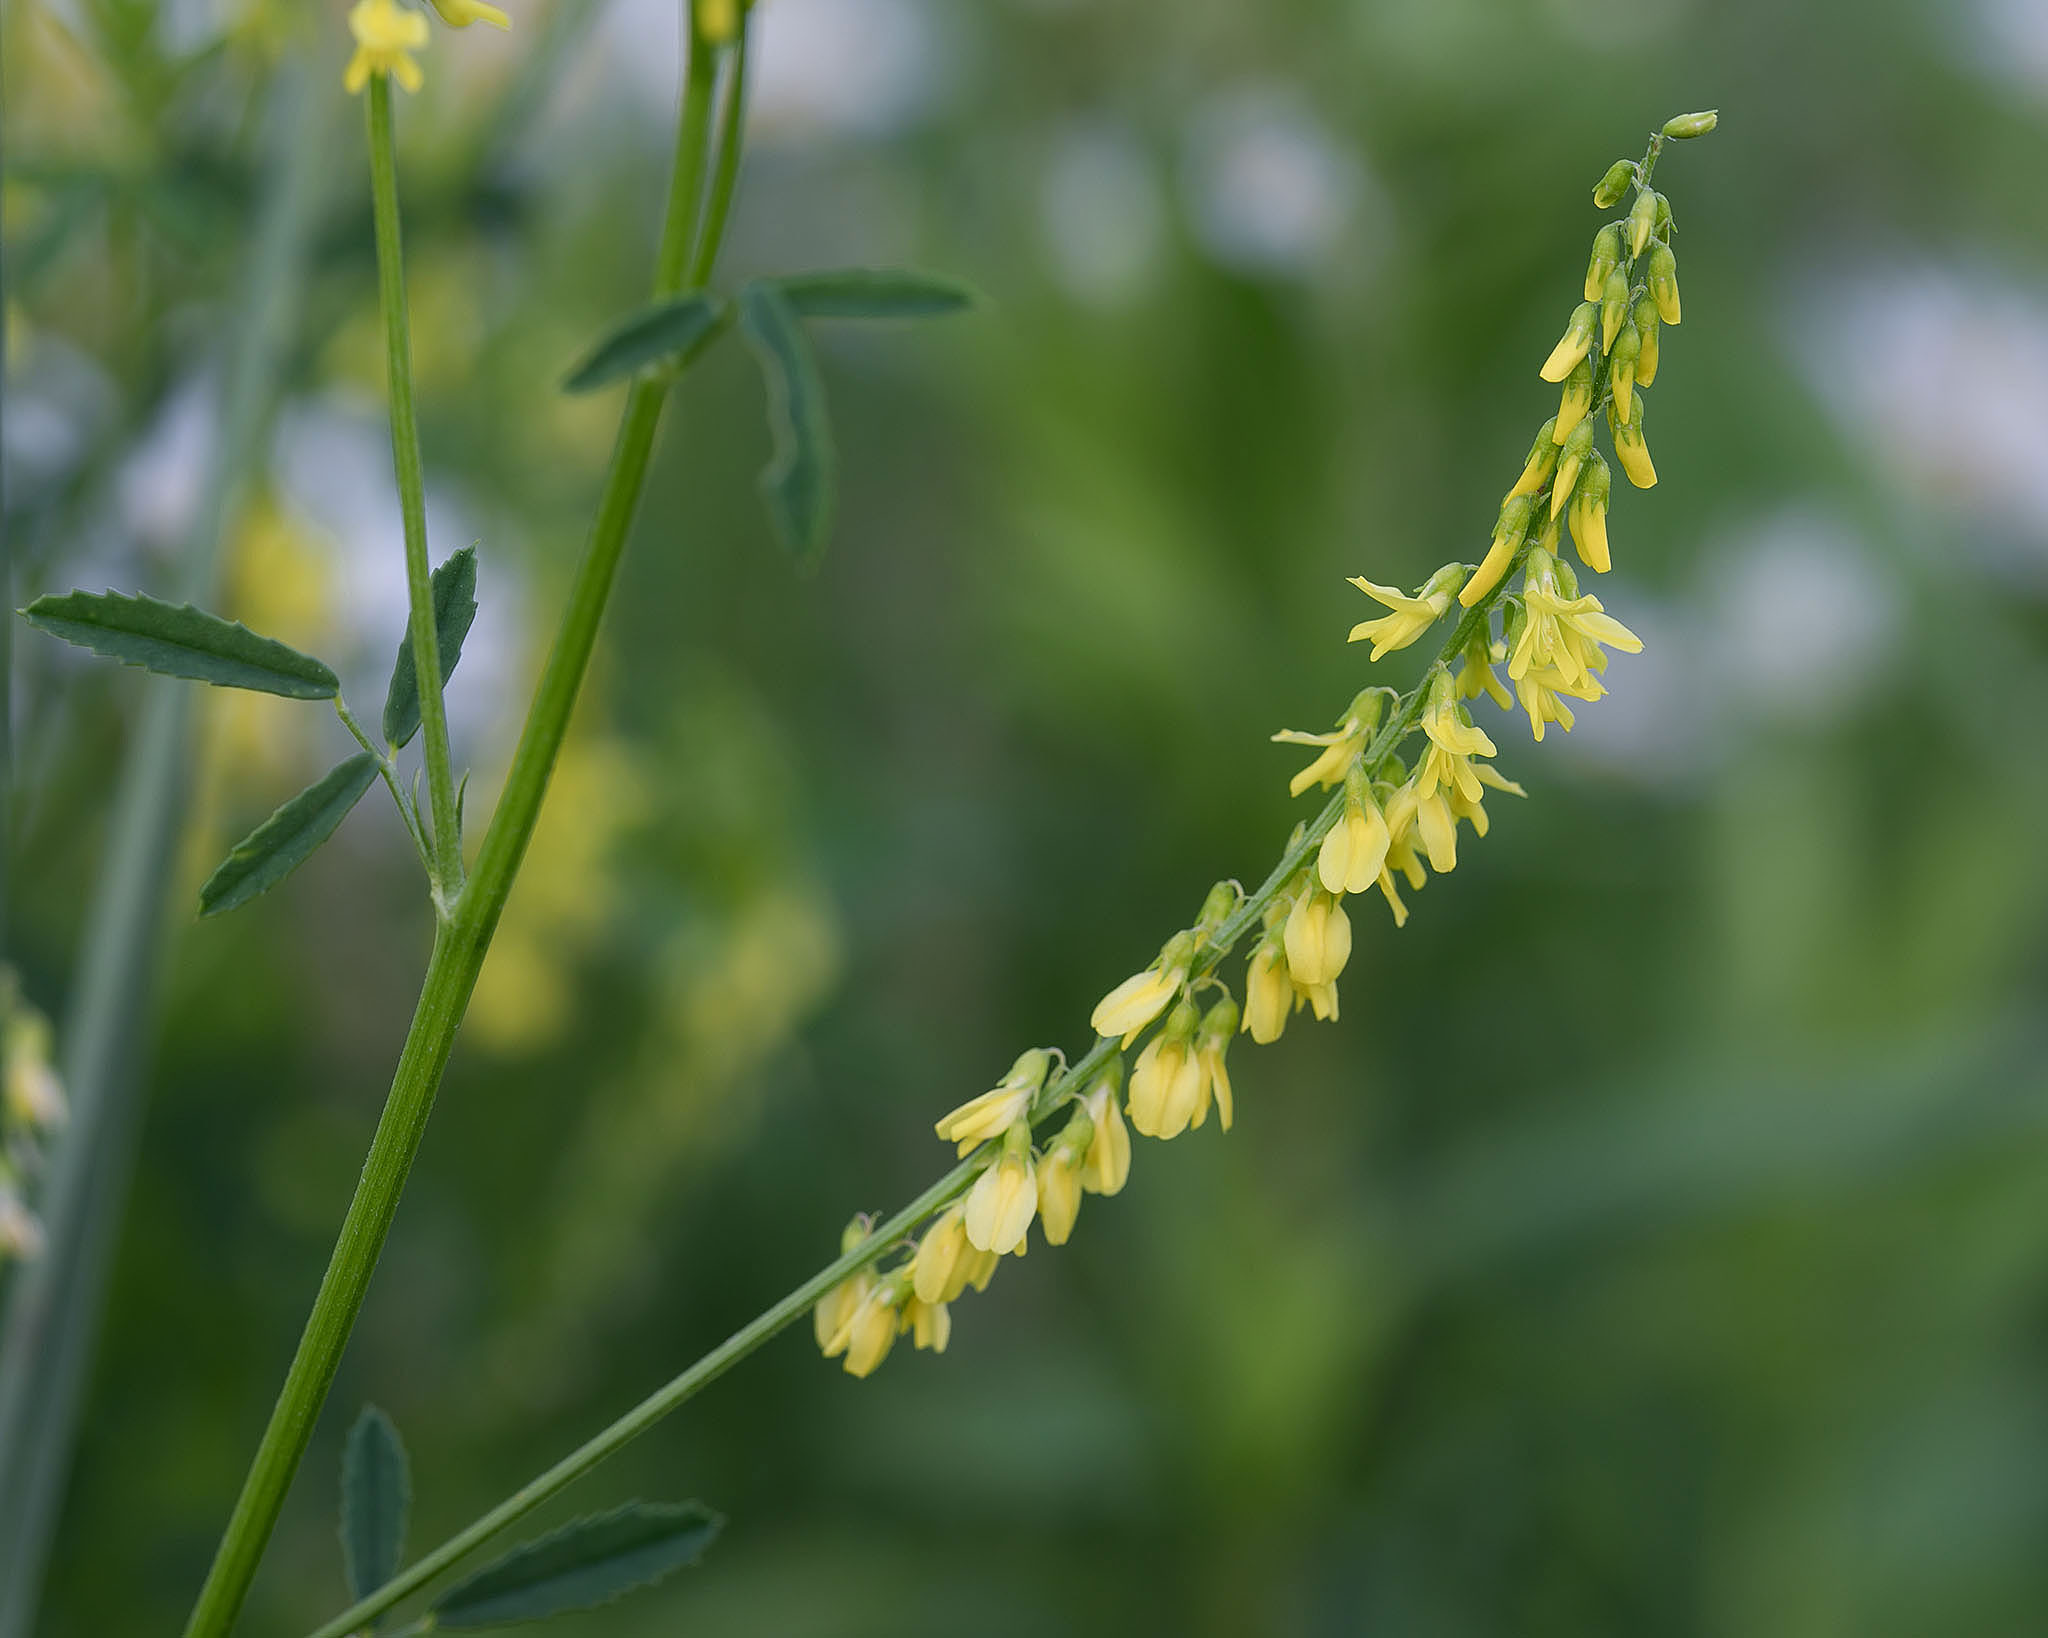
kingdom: Plantae
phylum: Tracheophyta
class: Magnoliopsida
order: Fabales
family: Fabaceae
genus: Melilotus
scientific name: Melilotus officinalis
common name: Sweetclover
